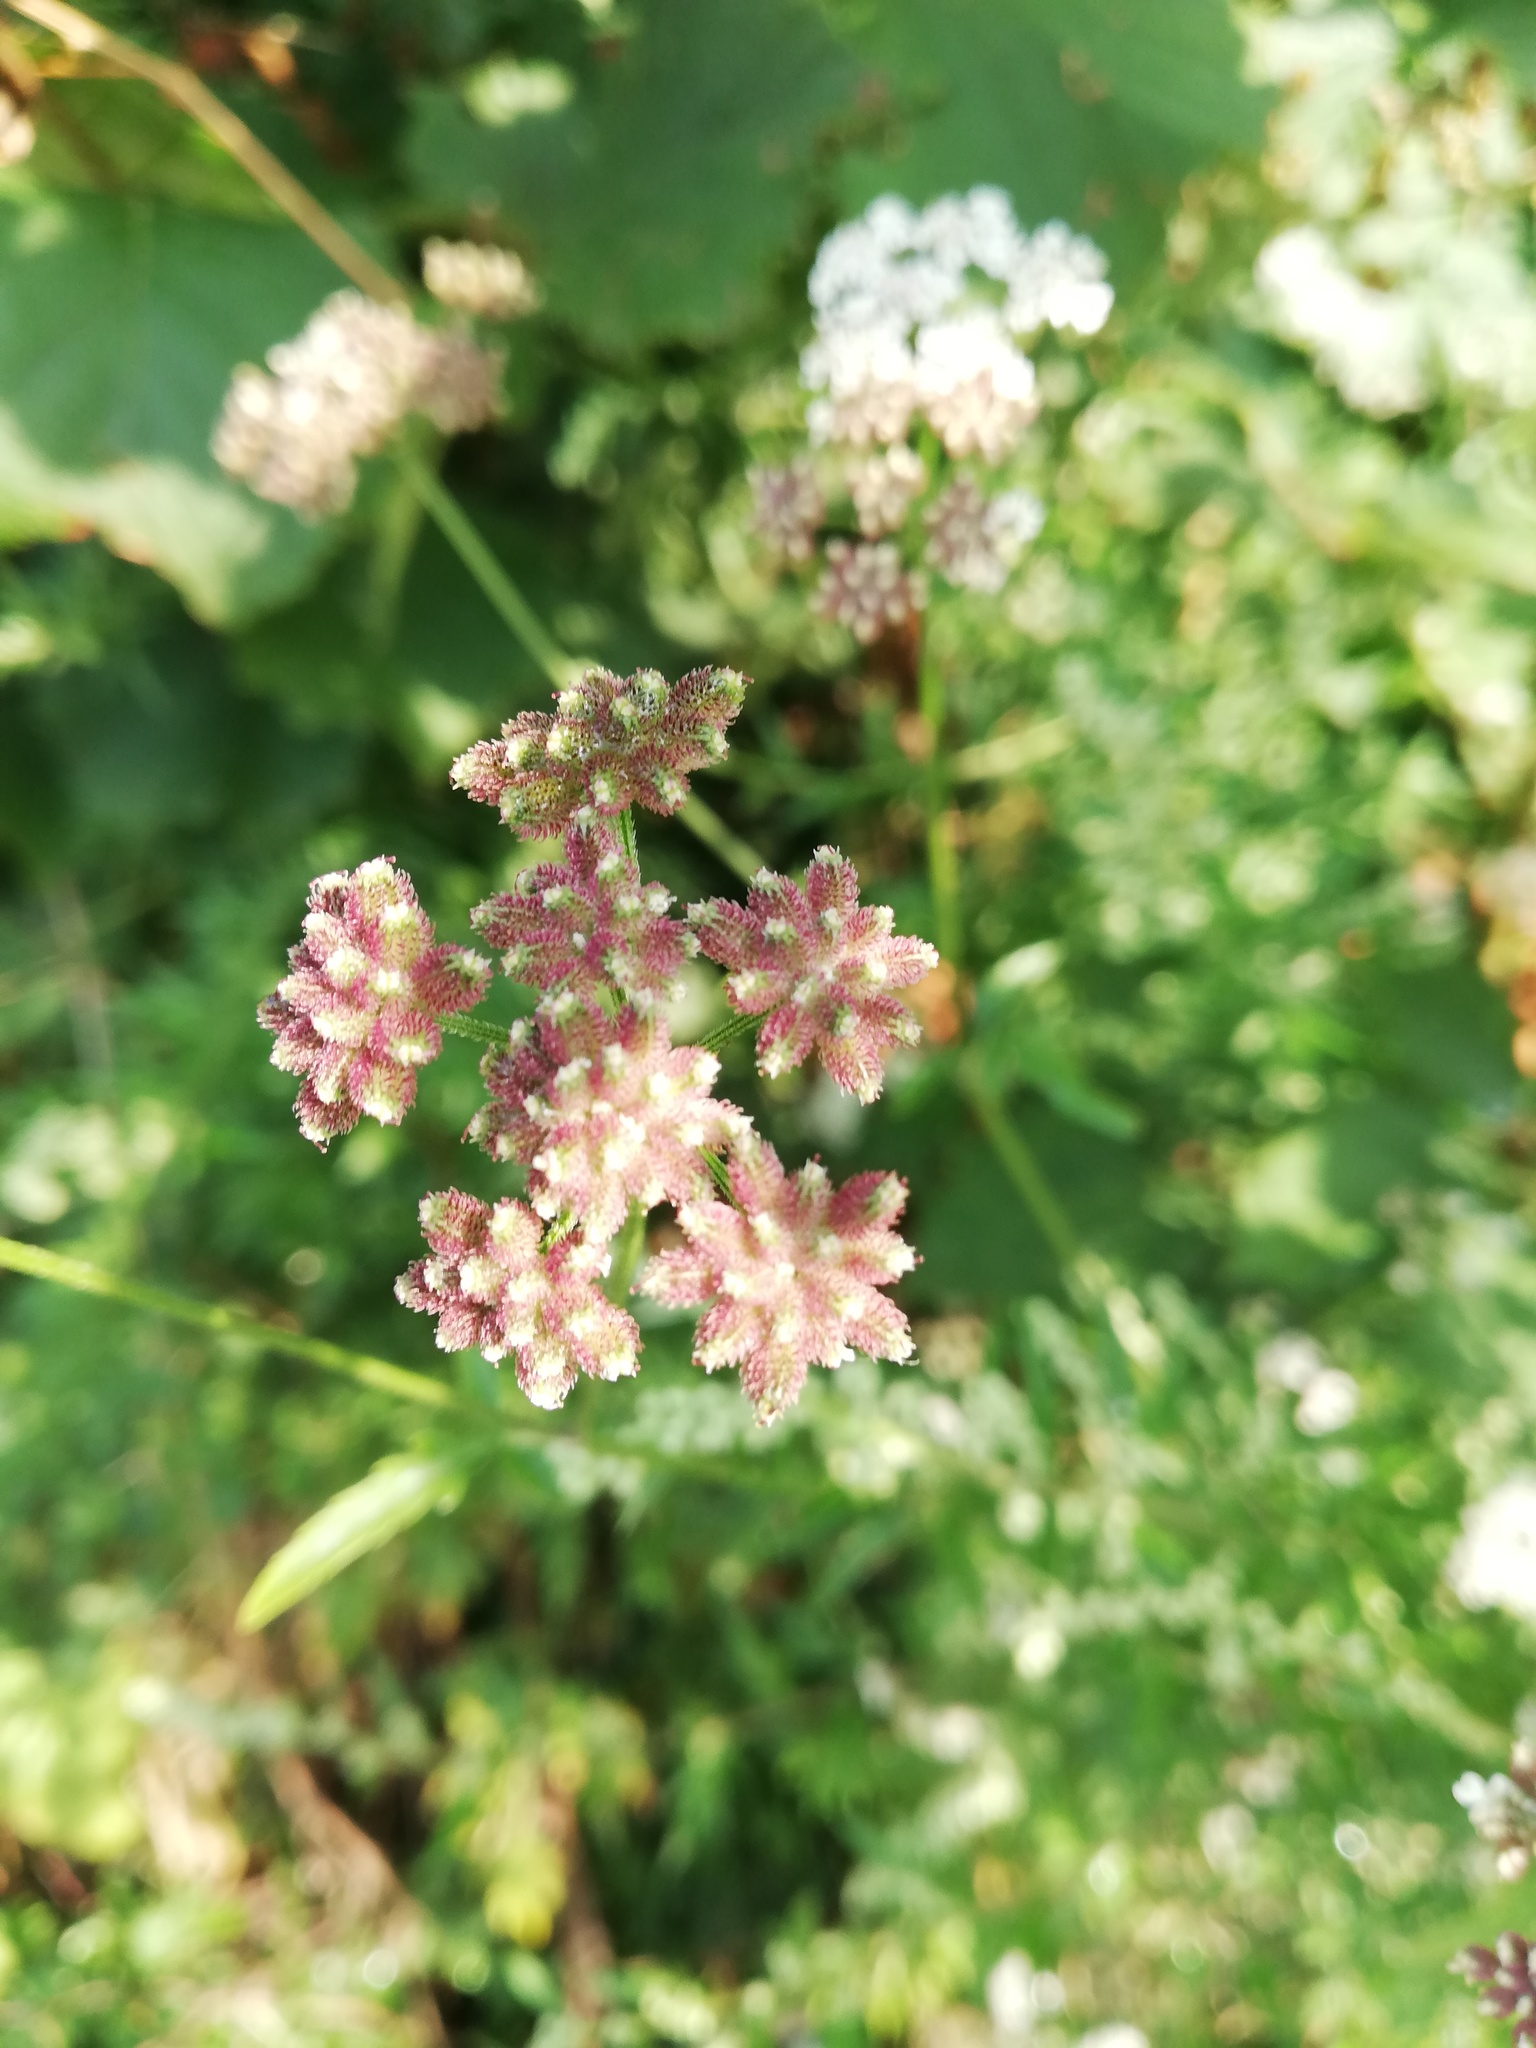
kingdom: Plantae
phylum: Tracheophyta
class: Magnoliopsida
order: Apiales
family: Apiaceae
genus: Torilis
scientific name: Torilis japonica
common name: Upright hedge-parsley
